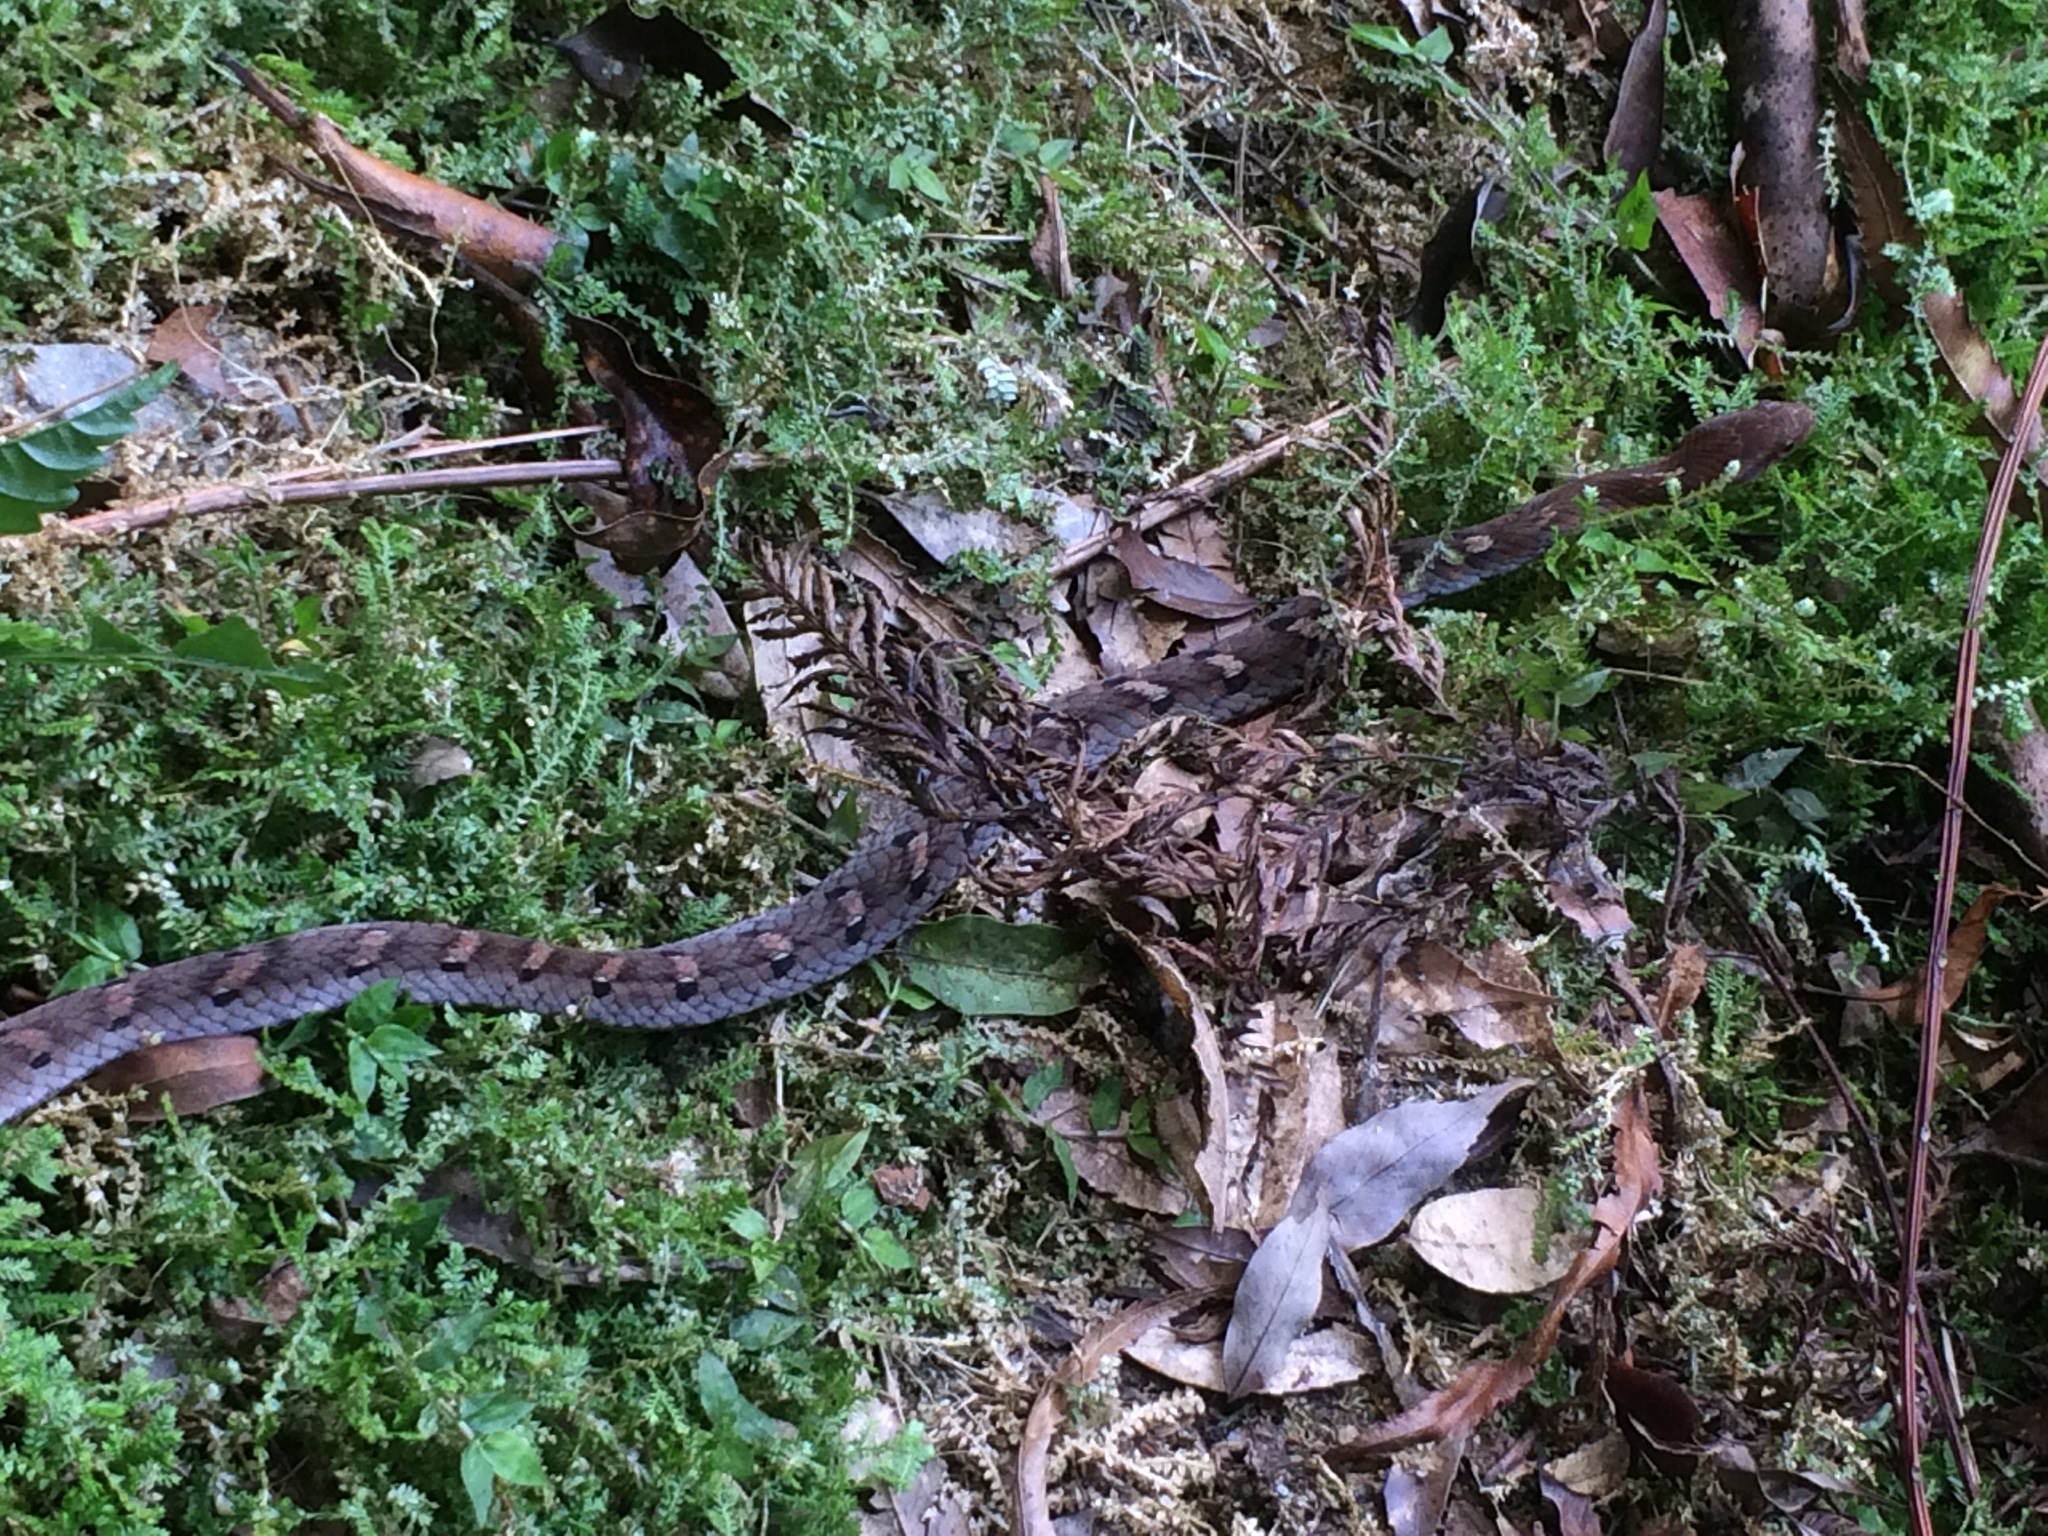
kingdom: Animalia
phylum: Chordata
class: Squamata
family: Colubridae
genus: Pseudoxenodon
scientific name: Pseudoxenodon stejnegeri
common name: Stejneger's bamboo snake
